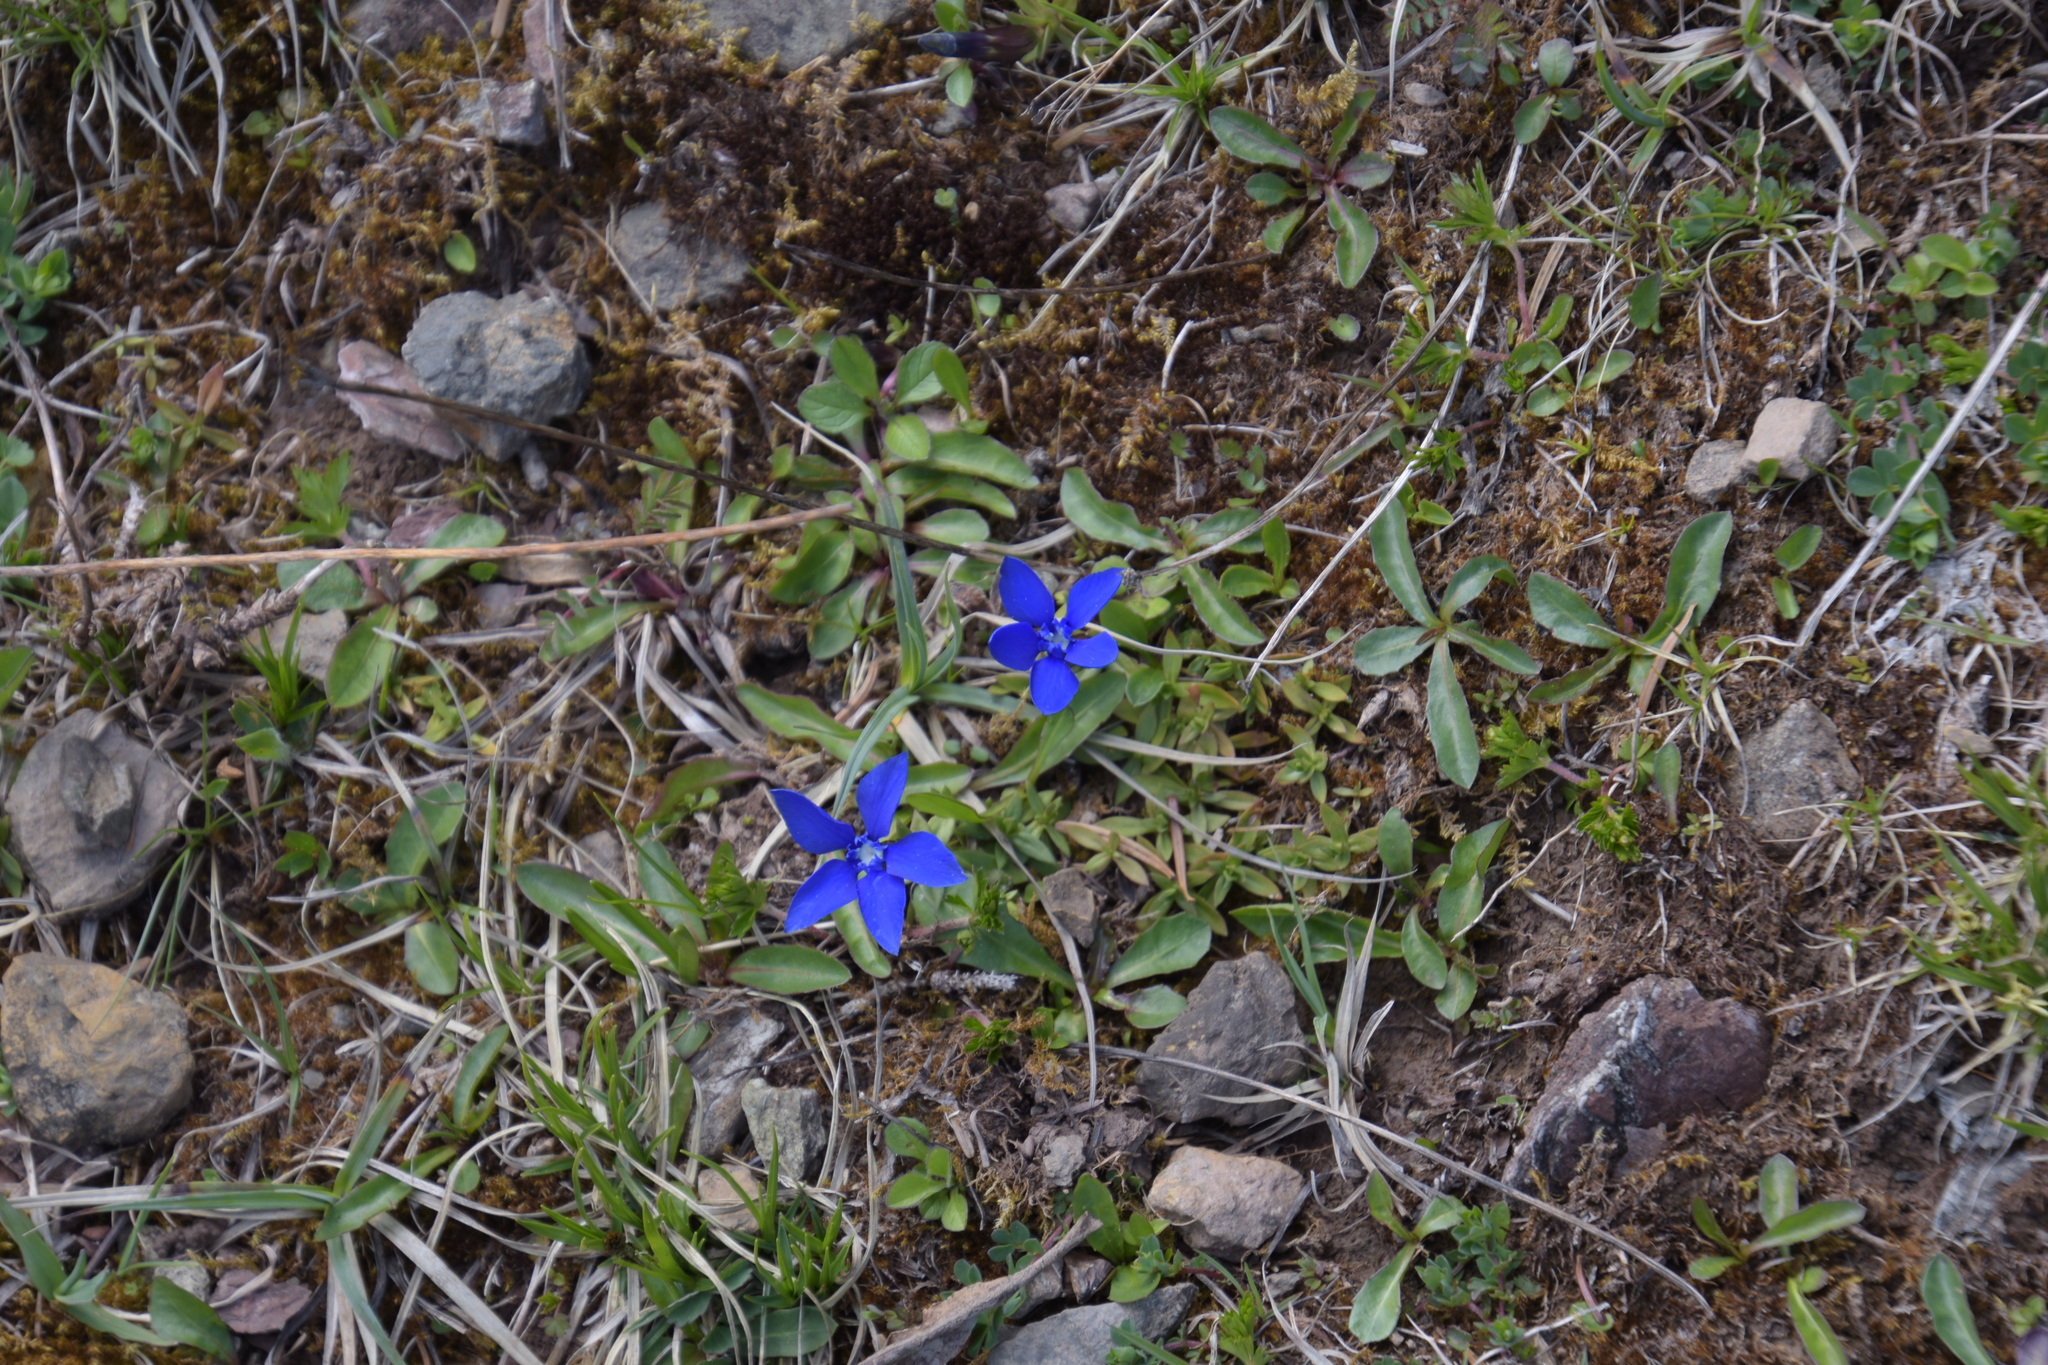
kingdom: Plantae
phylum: Tracheophyta
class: Magnoliopsida
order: Gentianales
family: Gentianaceae
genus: Gentiana
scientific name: Gentiana verna
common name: Spring gentian
